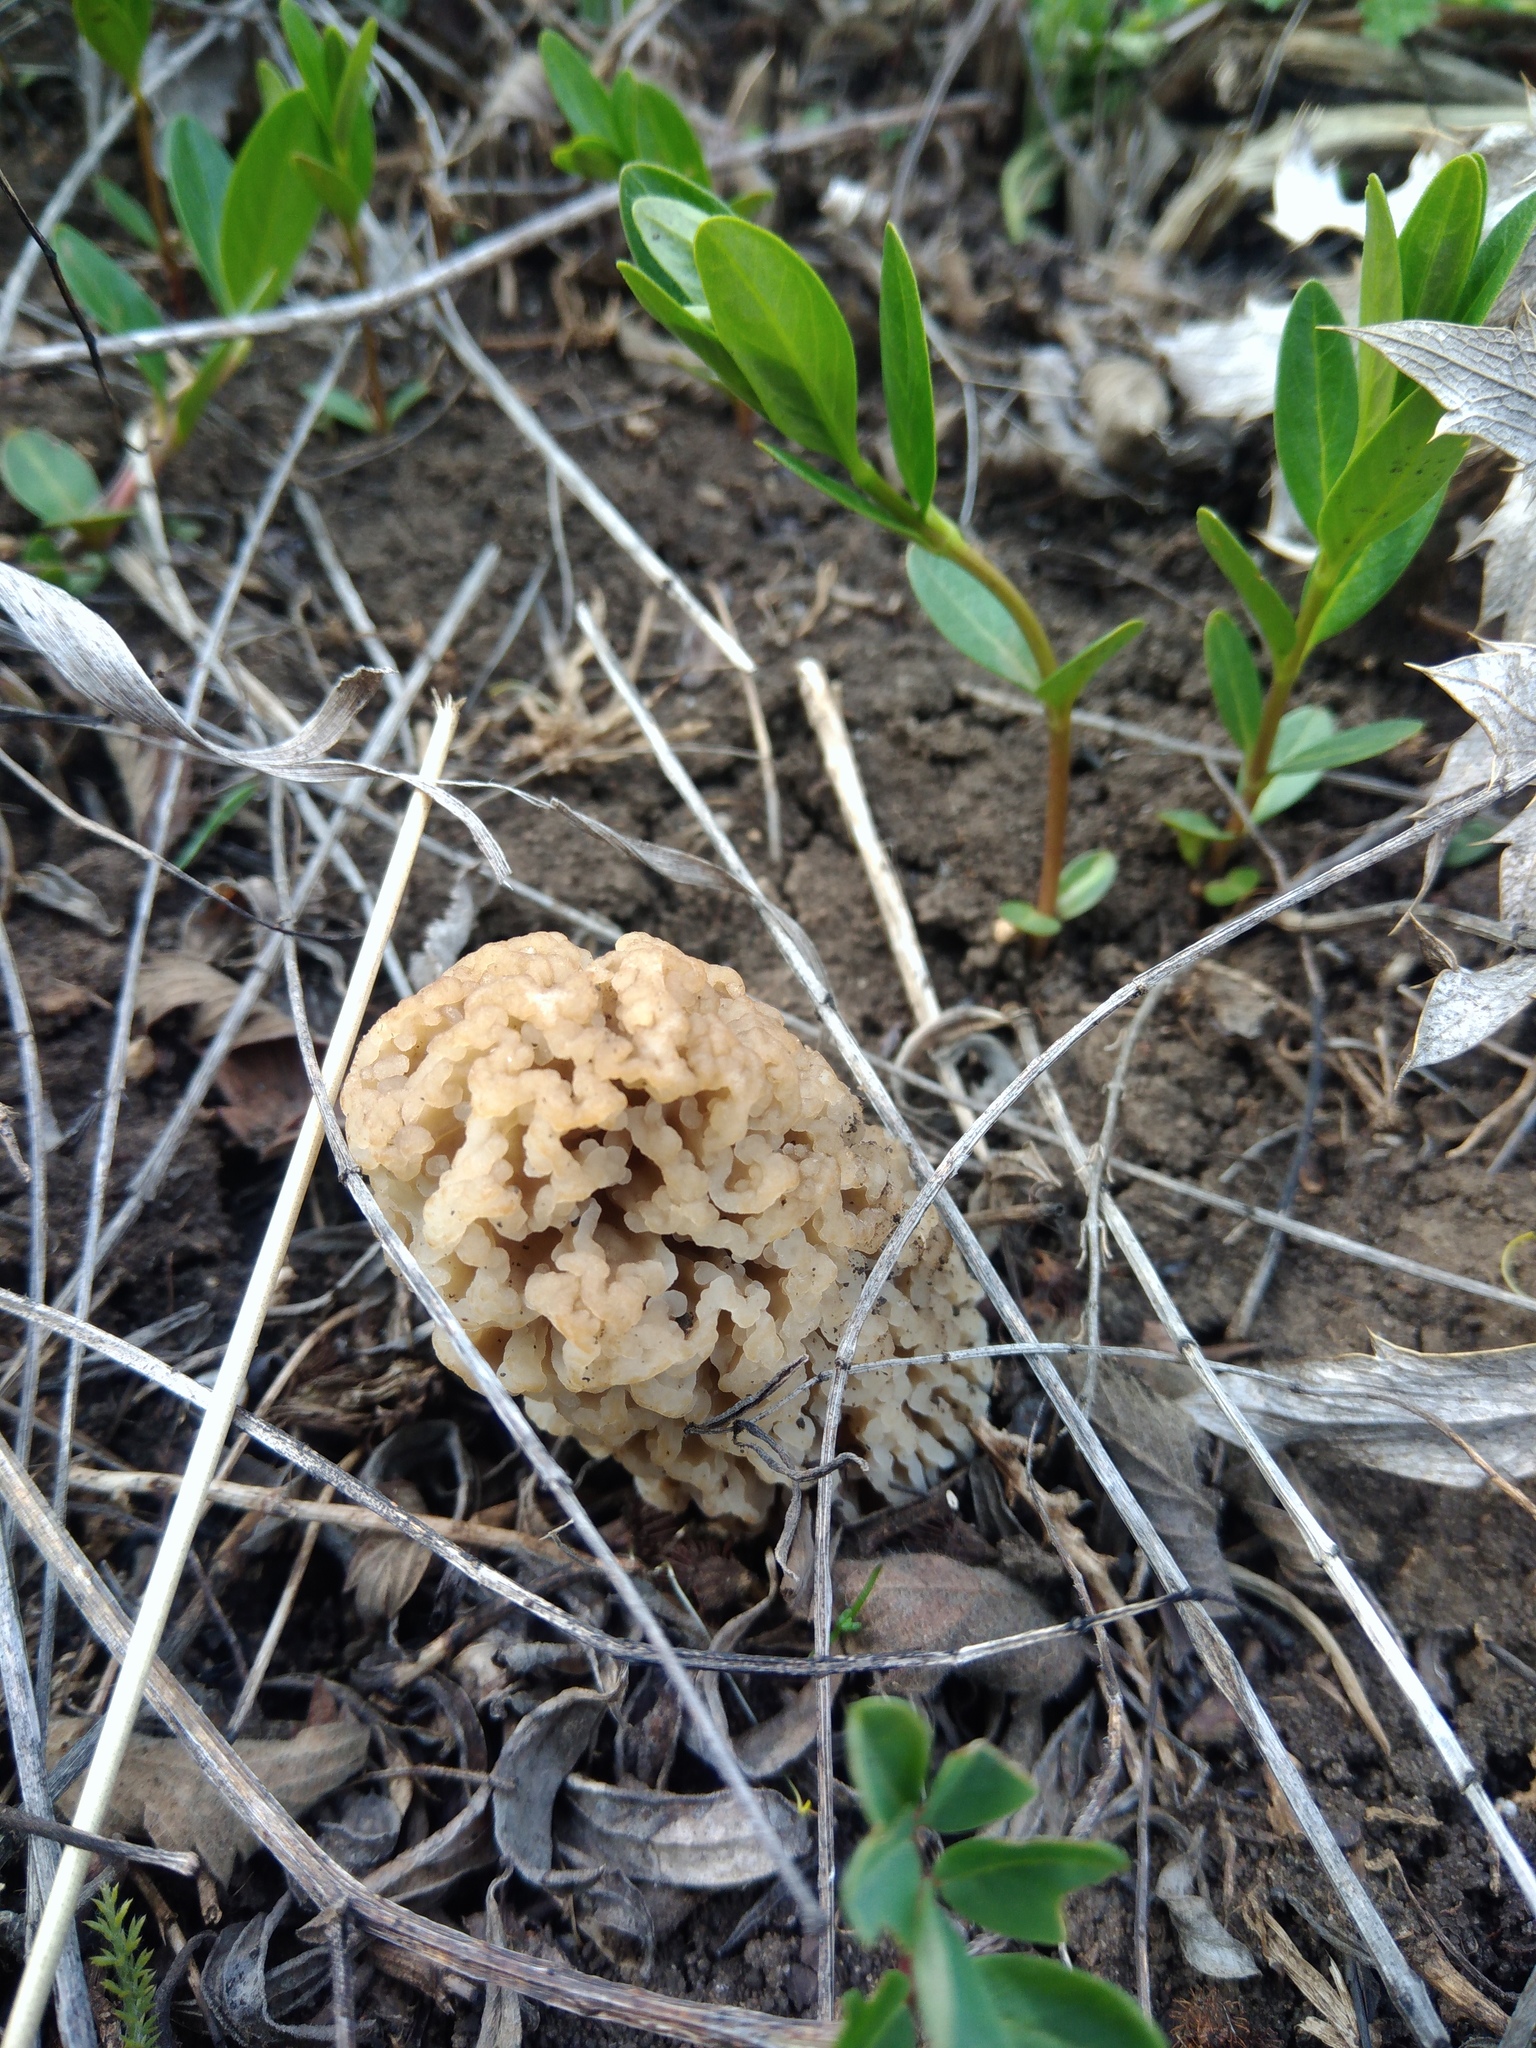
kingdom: Fungi
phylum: Ascomycota
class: Pezizomycetes
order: Pezizales
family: Morchellaceae
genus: Morchella
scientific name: Morchella steppicola
